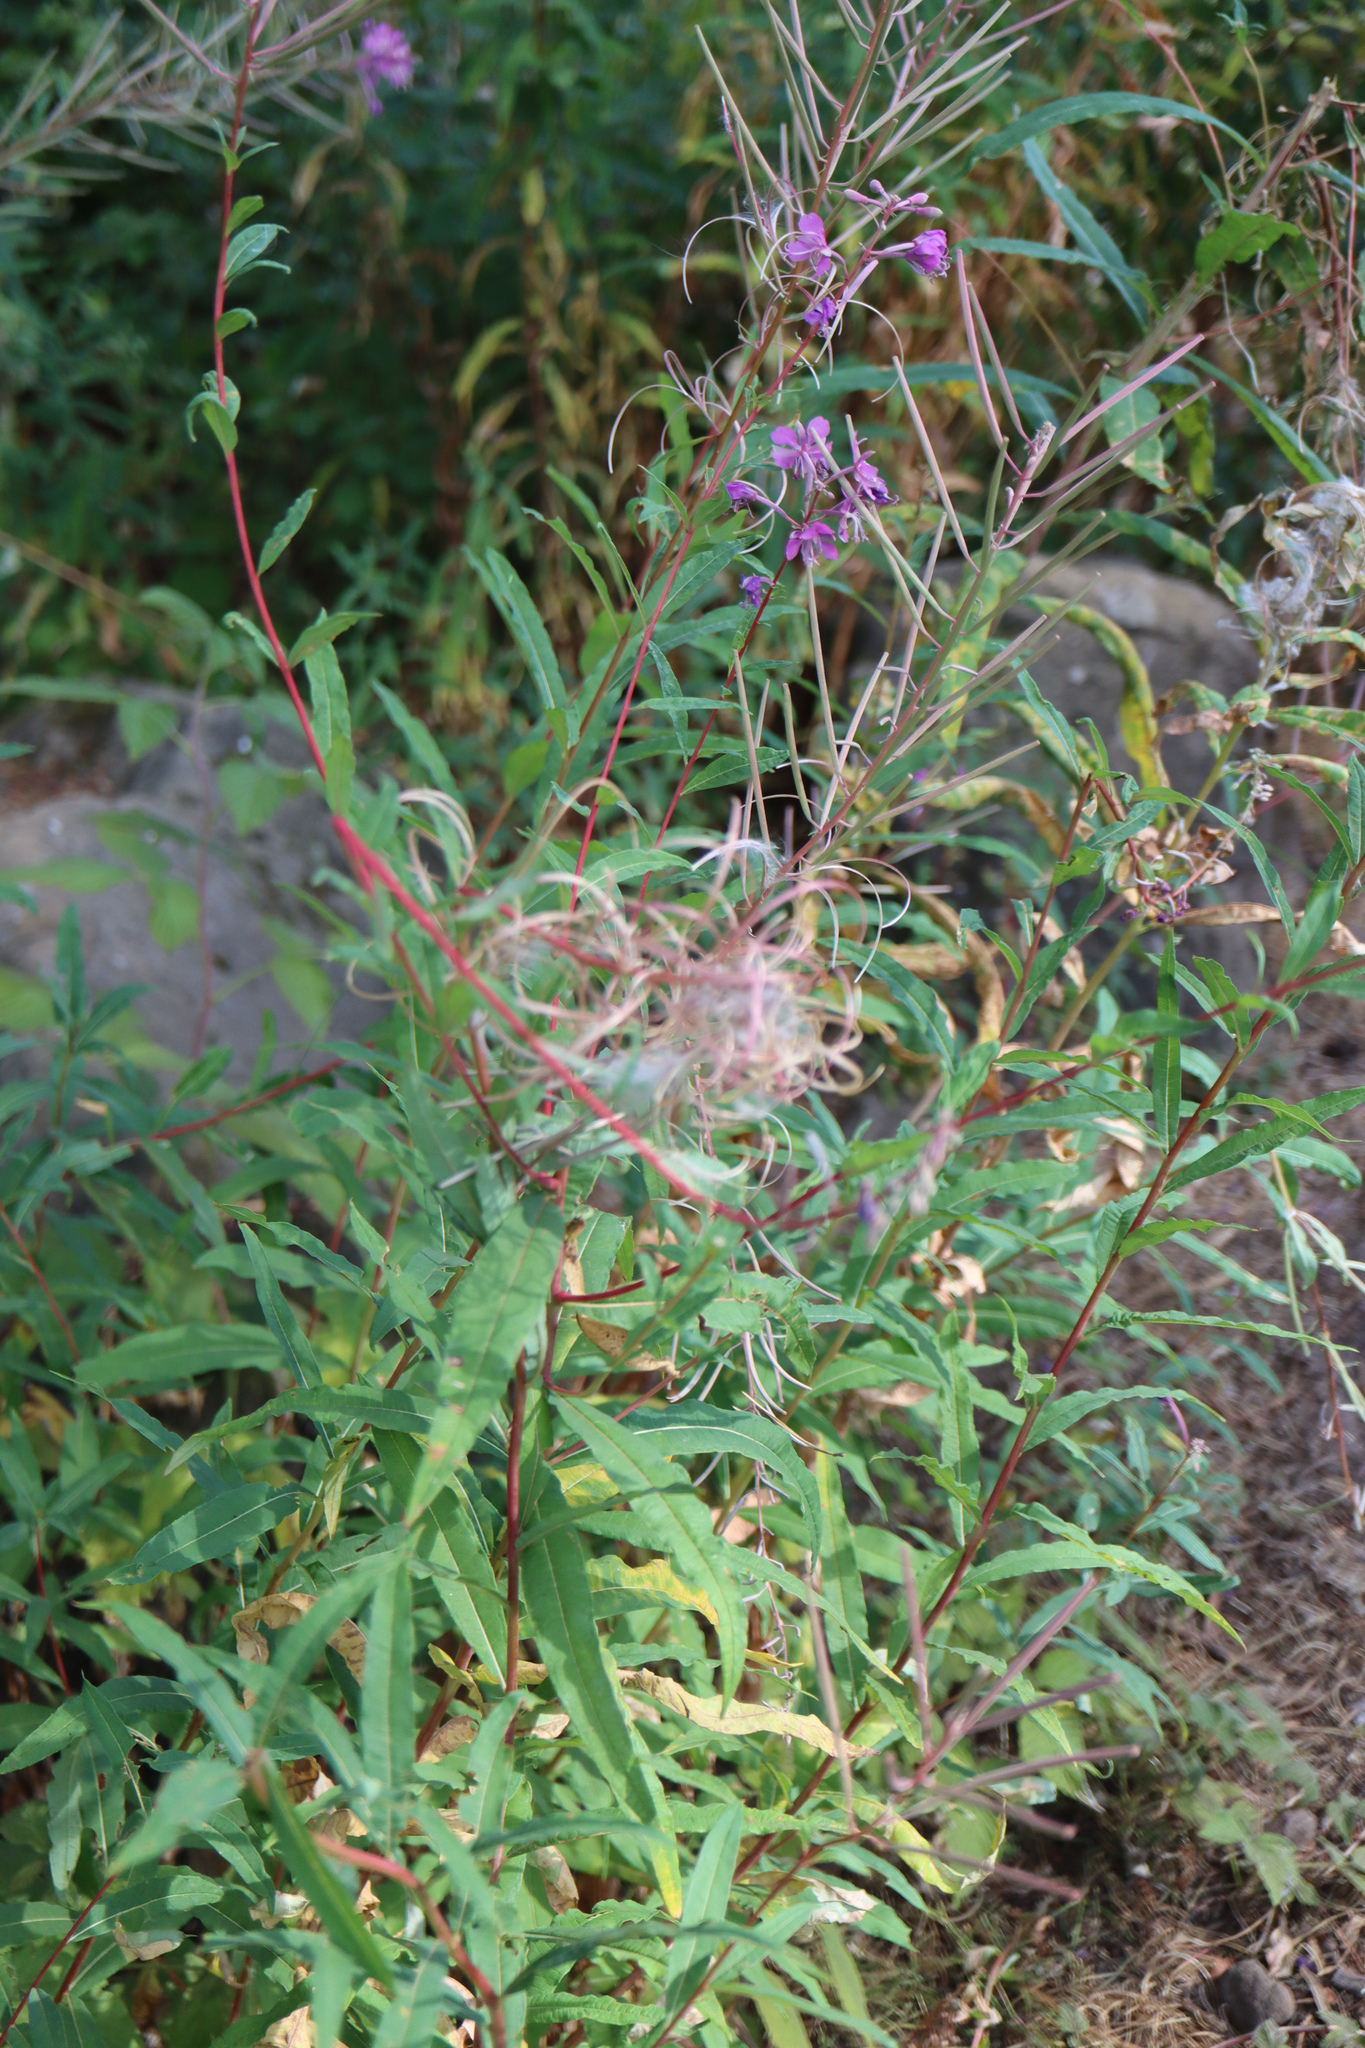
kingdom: Plantae
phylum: Tracheophyta
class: Magnoliopsida
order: Myrtales
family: Onagraceae
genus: Chamaenerion
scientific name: Chamaenerion angustifolium
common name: Fireweed
